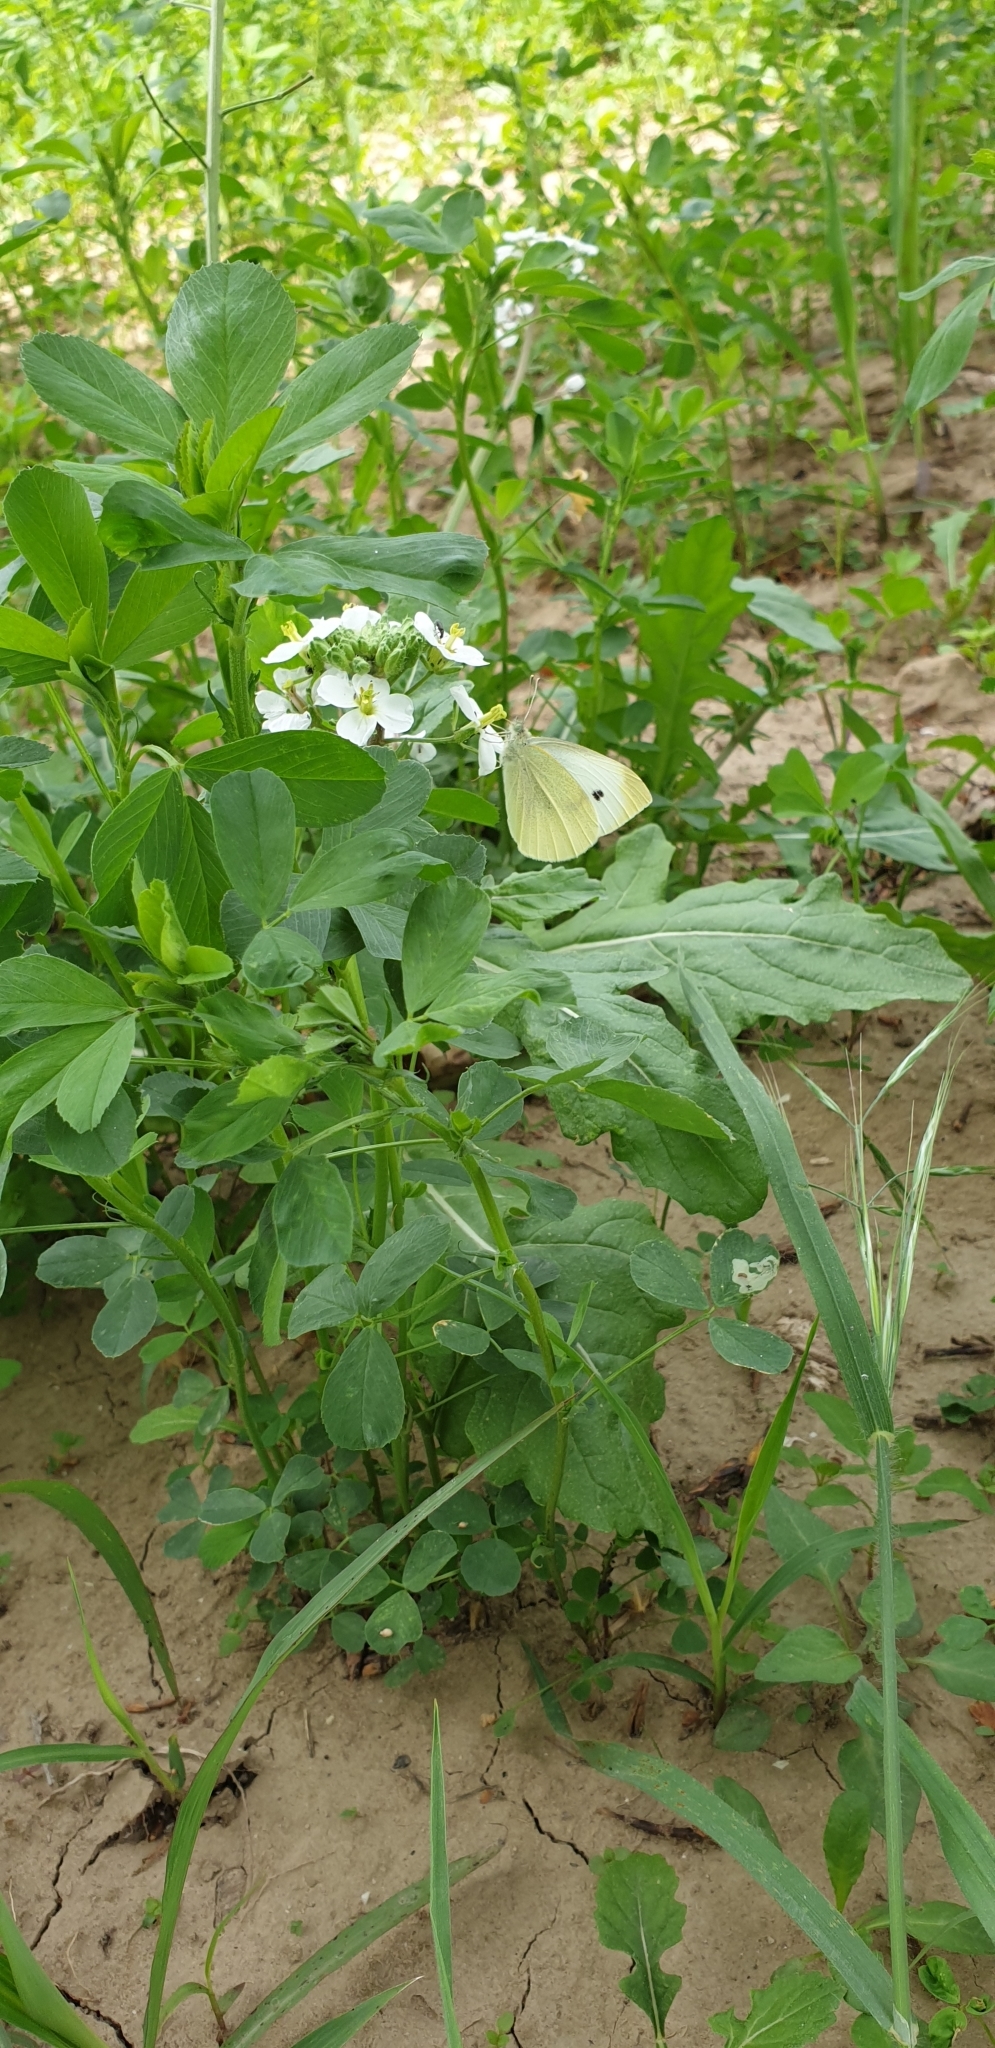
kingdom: Animalia
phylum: Arthropoda
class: Insecta
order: Lepidoptera
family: Pieridae
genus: Pieris
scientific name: Pieris brassicae
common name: Large white
